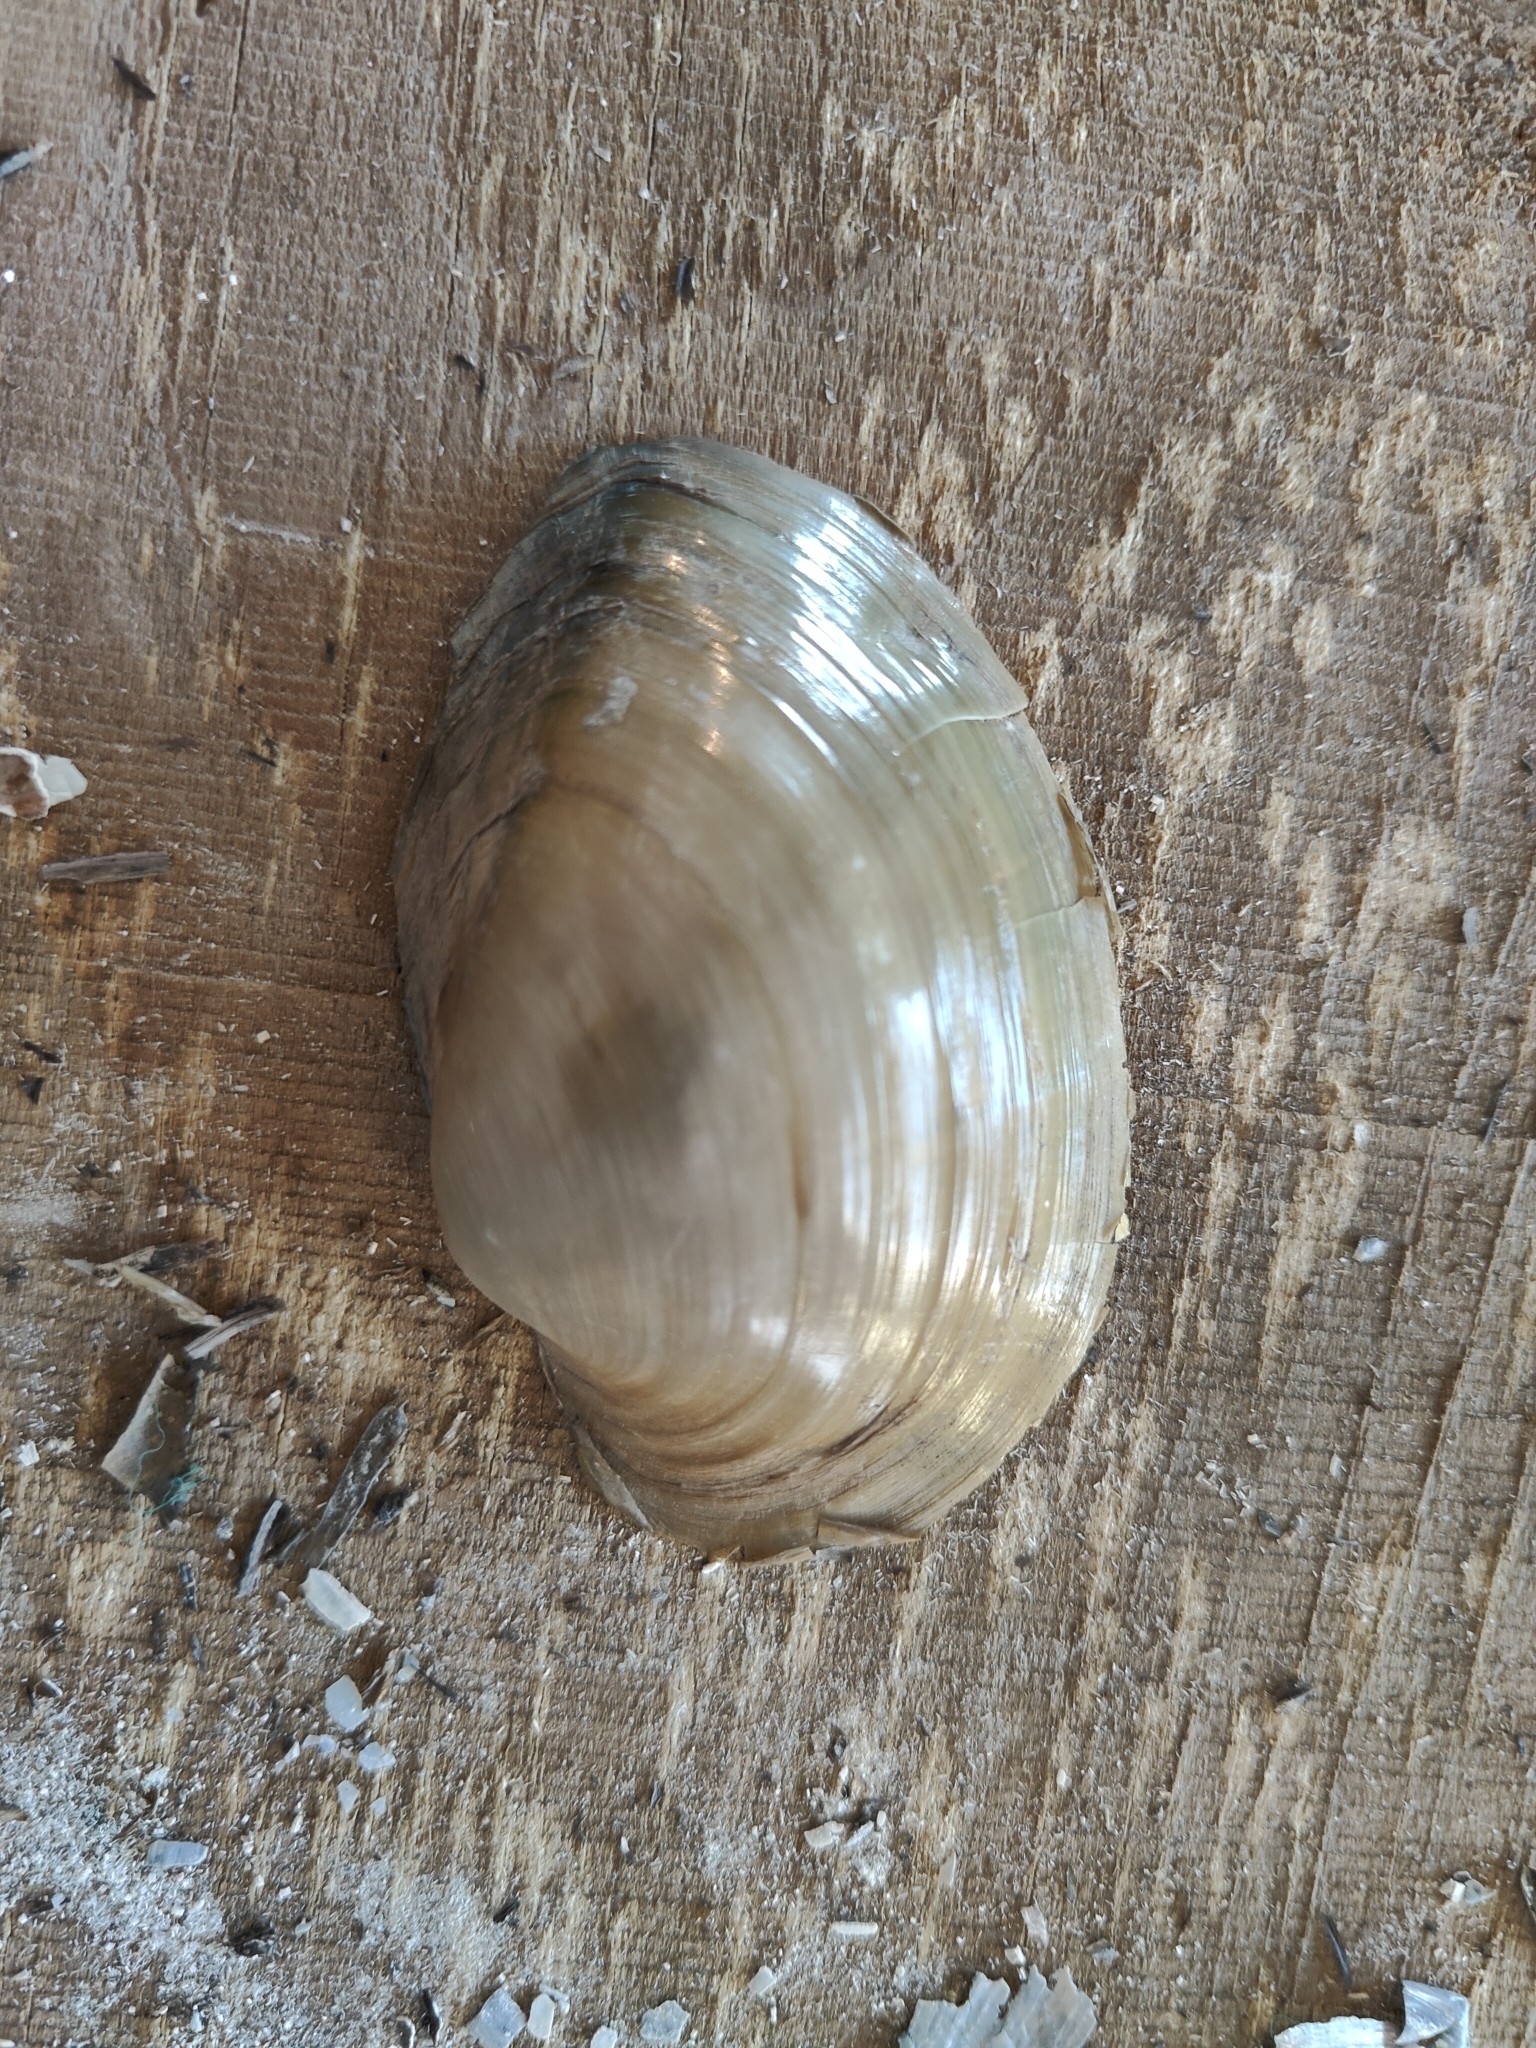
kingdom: Animalia
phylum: Mollusca
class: Bivalvia
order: Unionida
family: Unionidae
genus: Pyganodon
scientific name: Pyganodon grandis
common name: Giant floater
